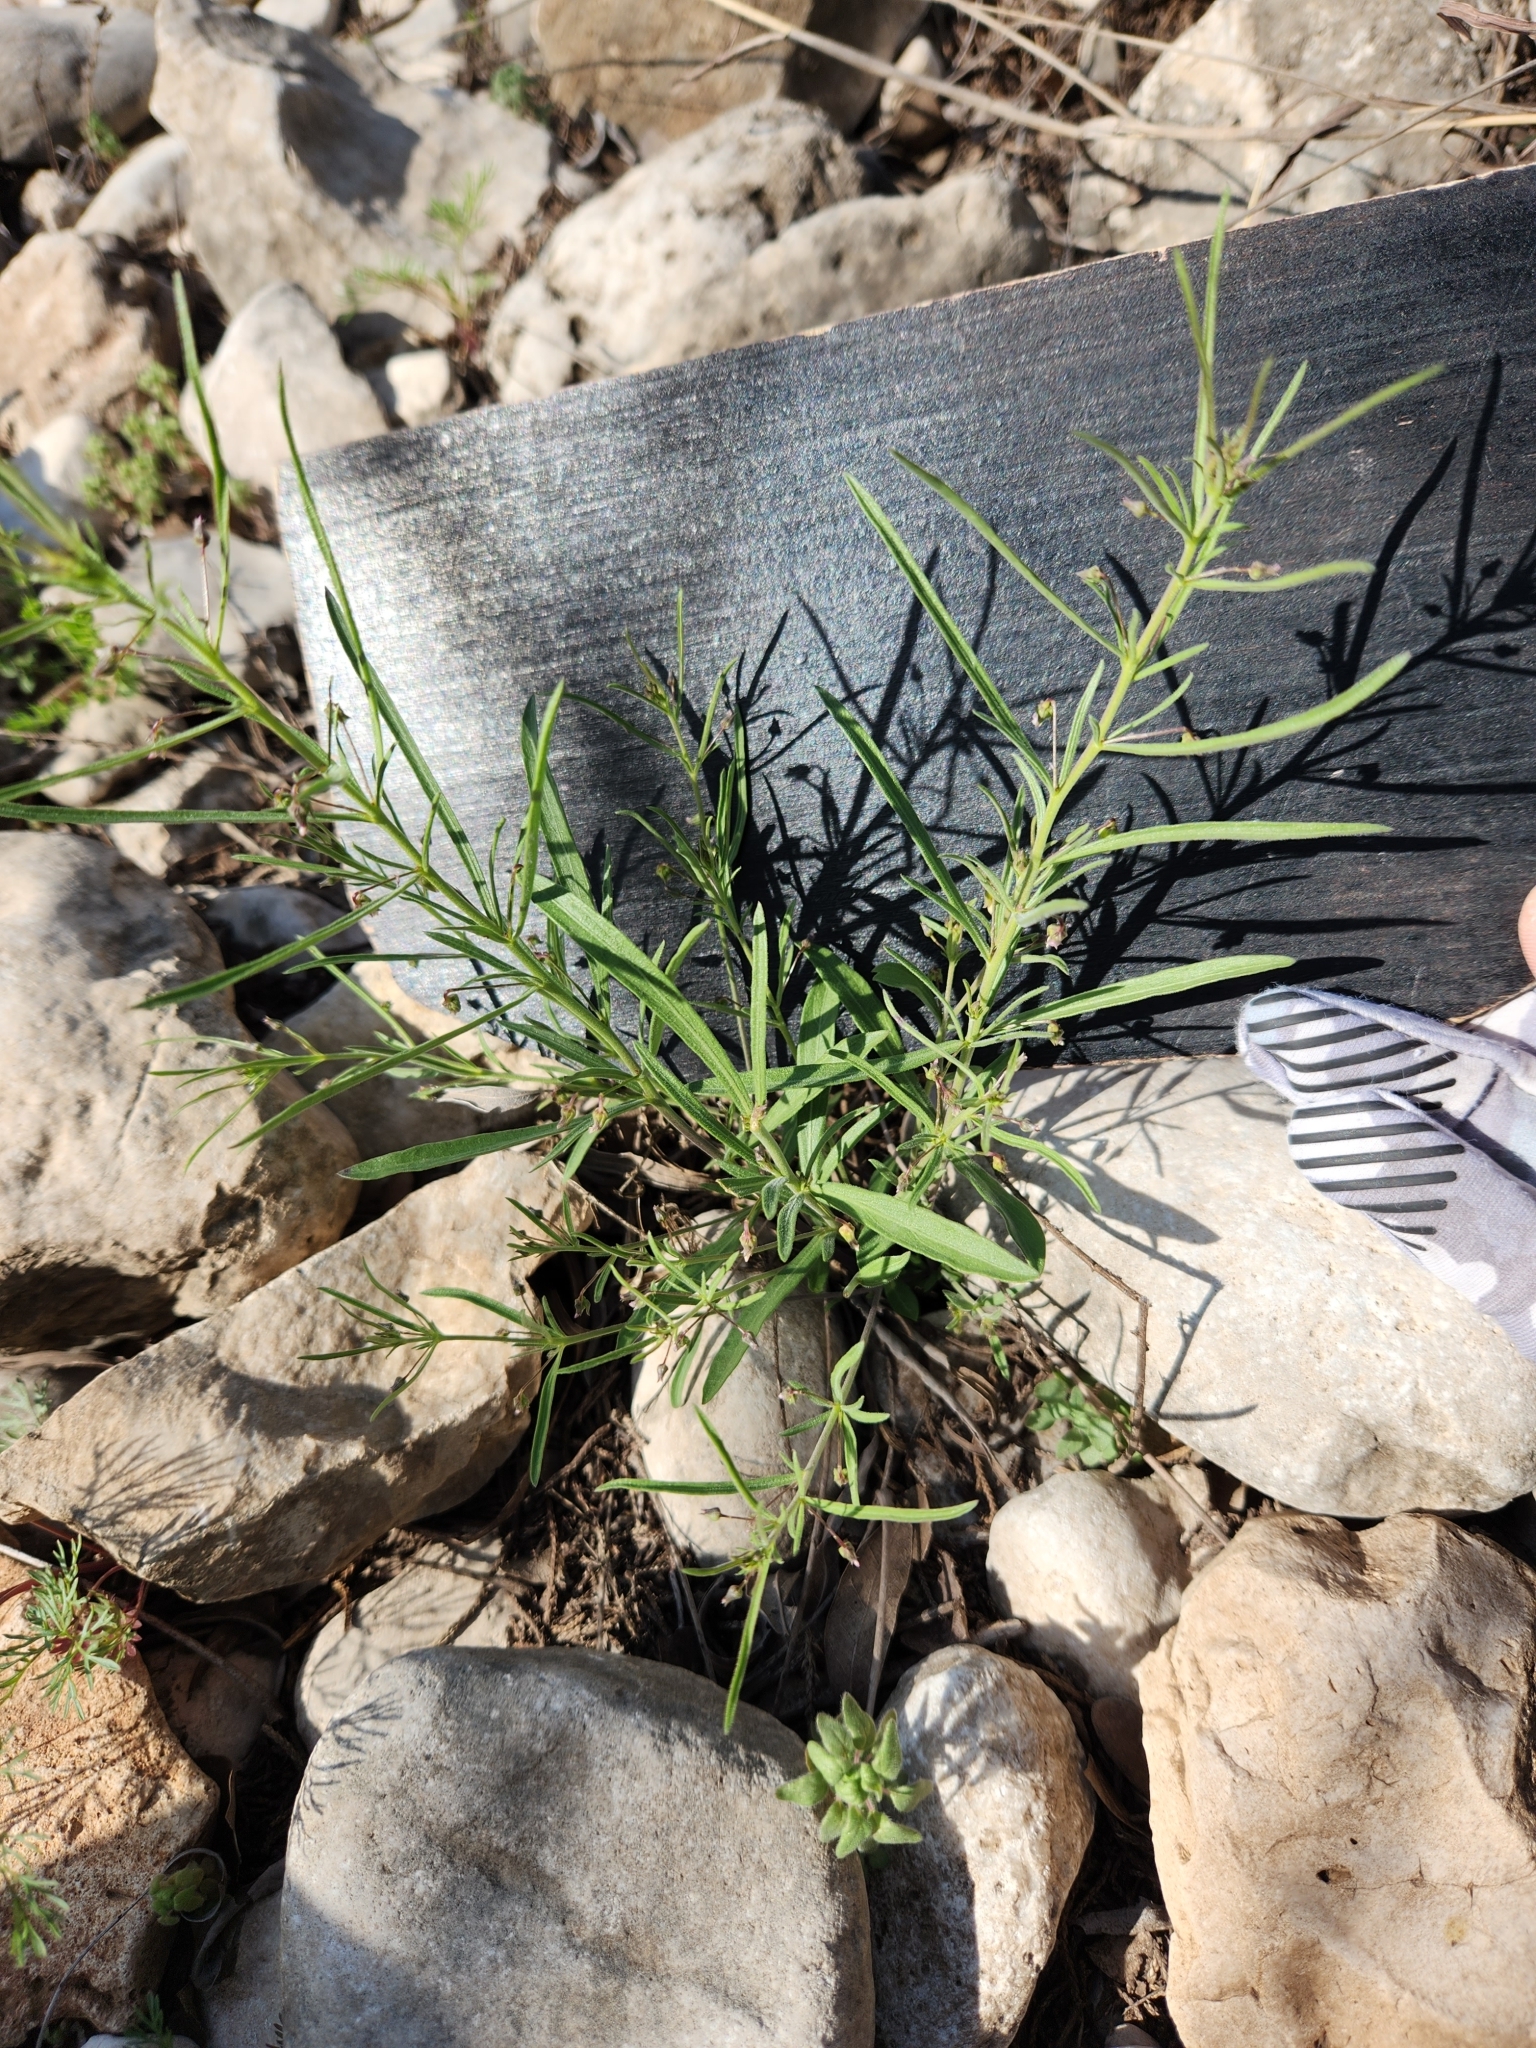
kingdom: Plantae
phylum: Tracheophyta
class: Magnoliopsida
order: Malpighiales
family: Violaceae
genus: Pombalia
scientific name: Pombalia verticillata
